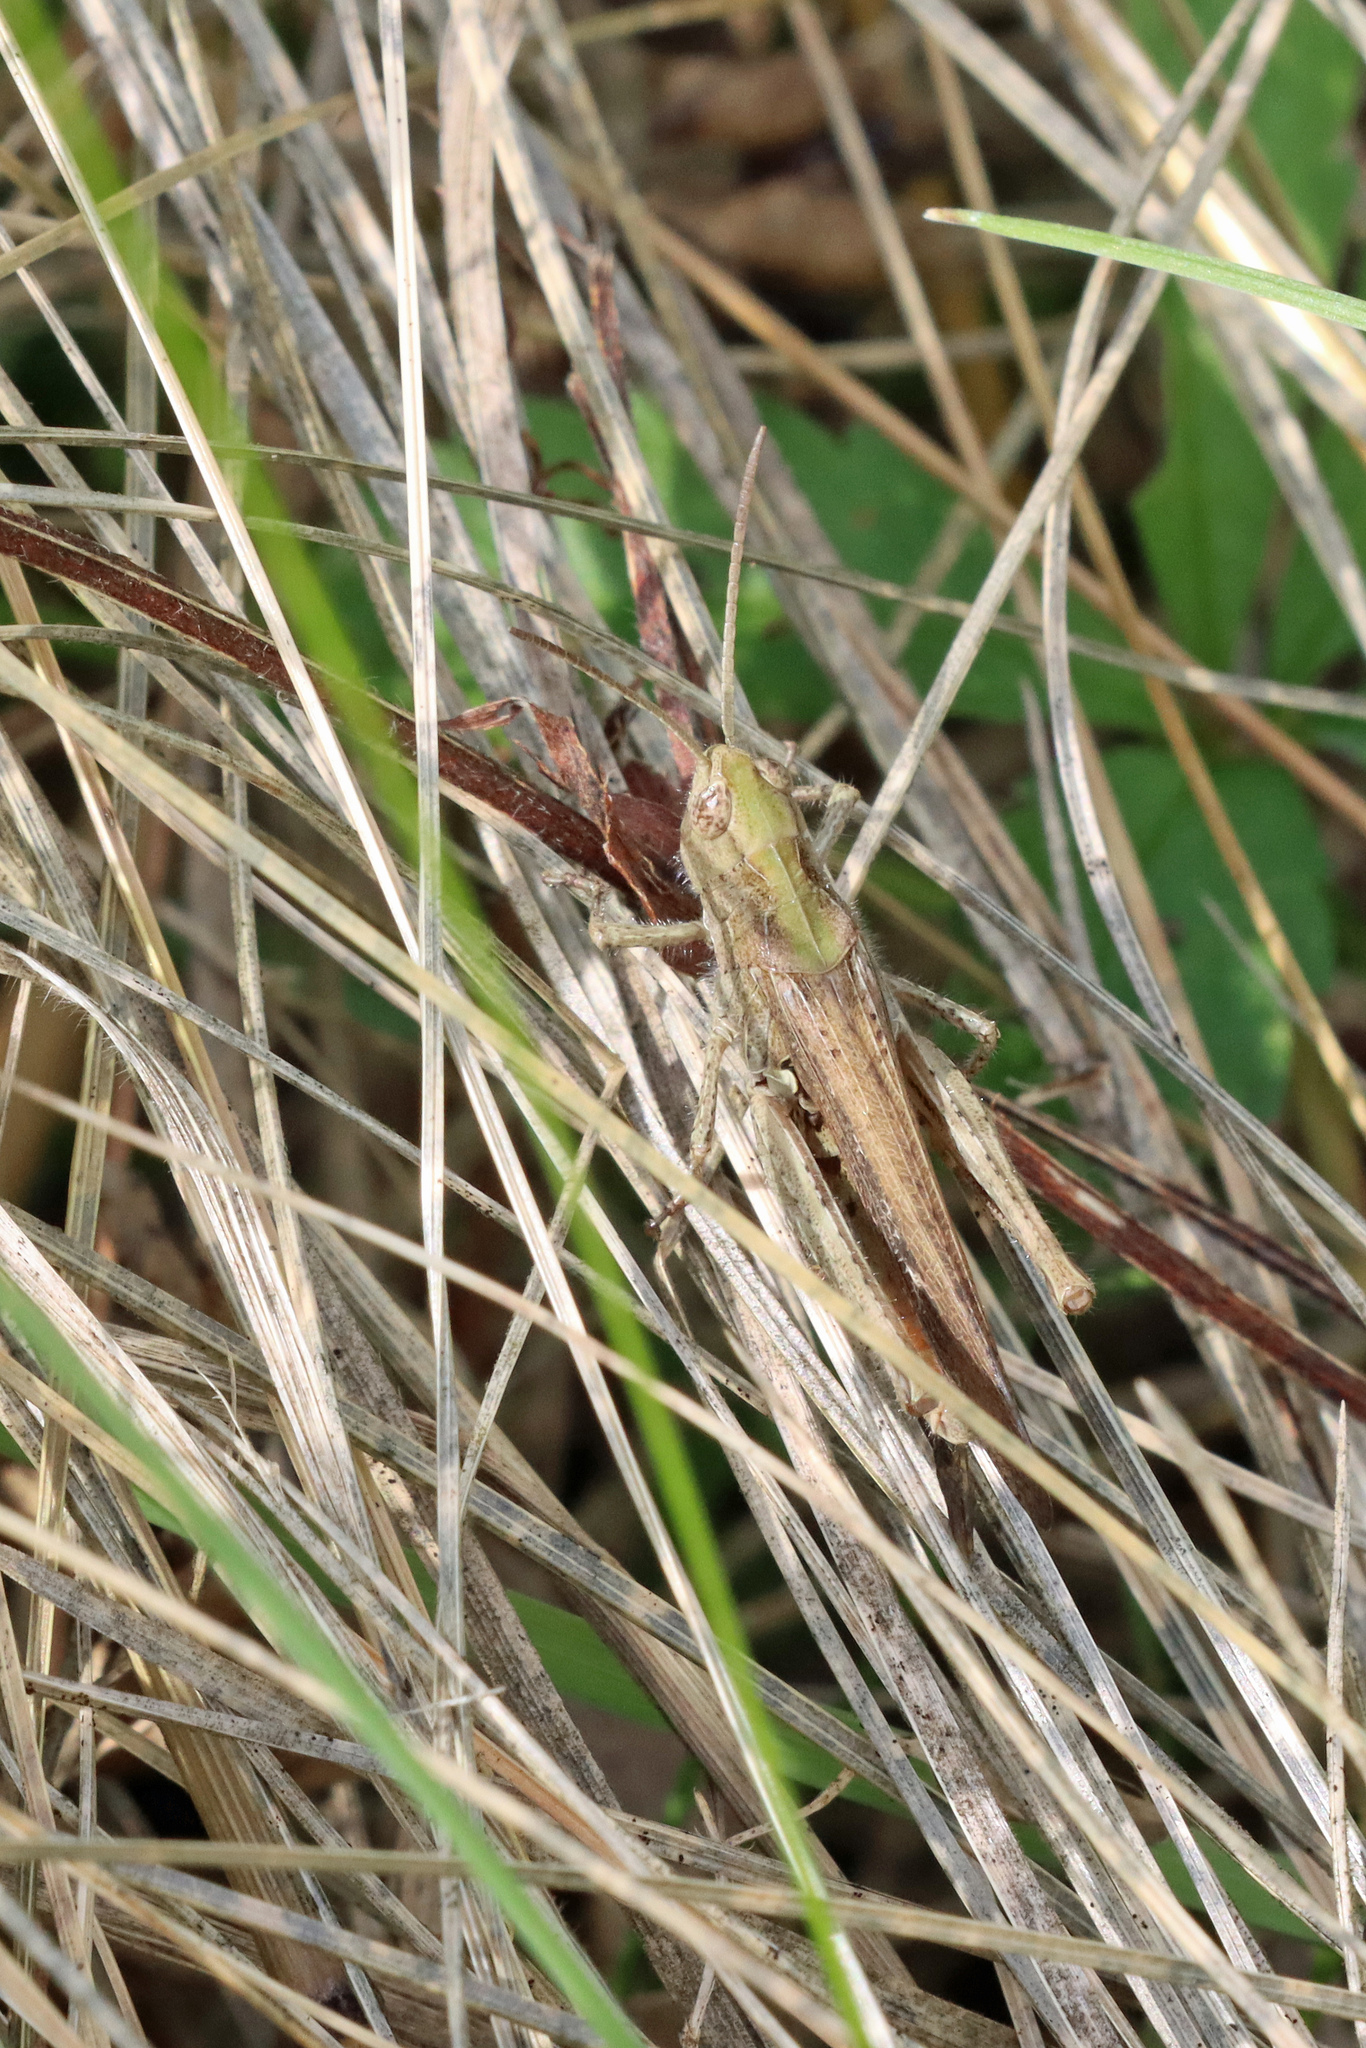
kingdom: Animalia
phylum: Arthropoda
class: Insecta
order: Orthoptera
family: Acrididae
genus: Chorthippus
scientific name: Chorthippus brunneus
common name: Field grasshopper
